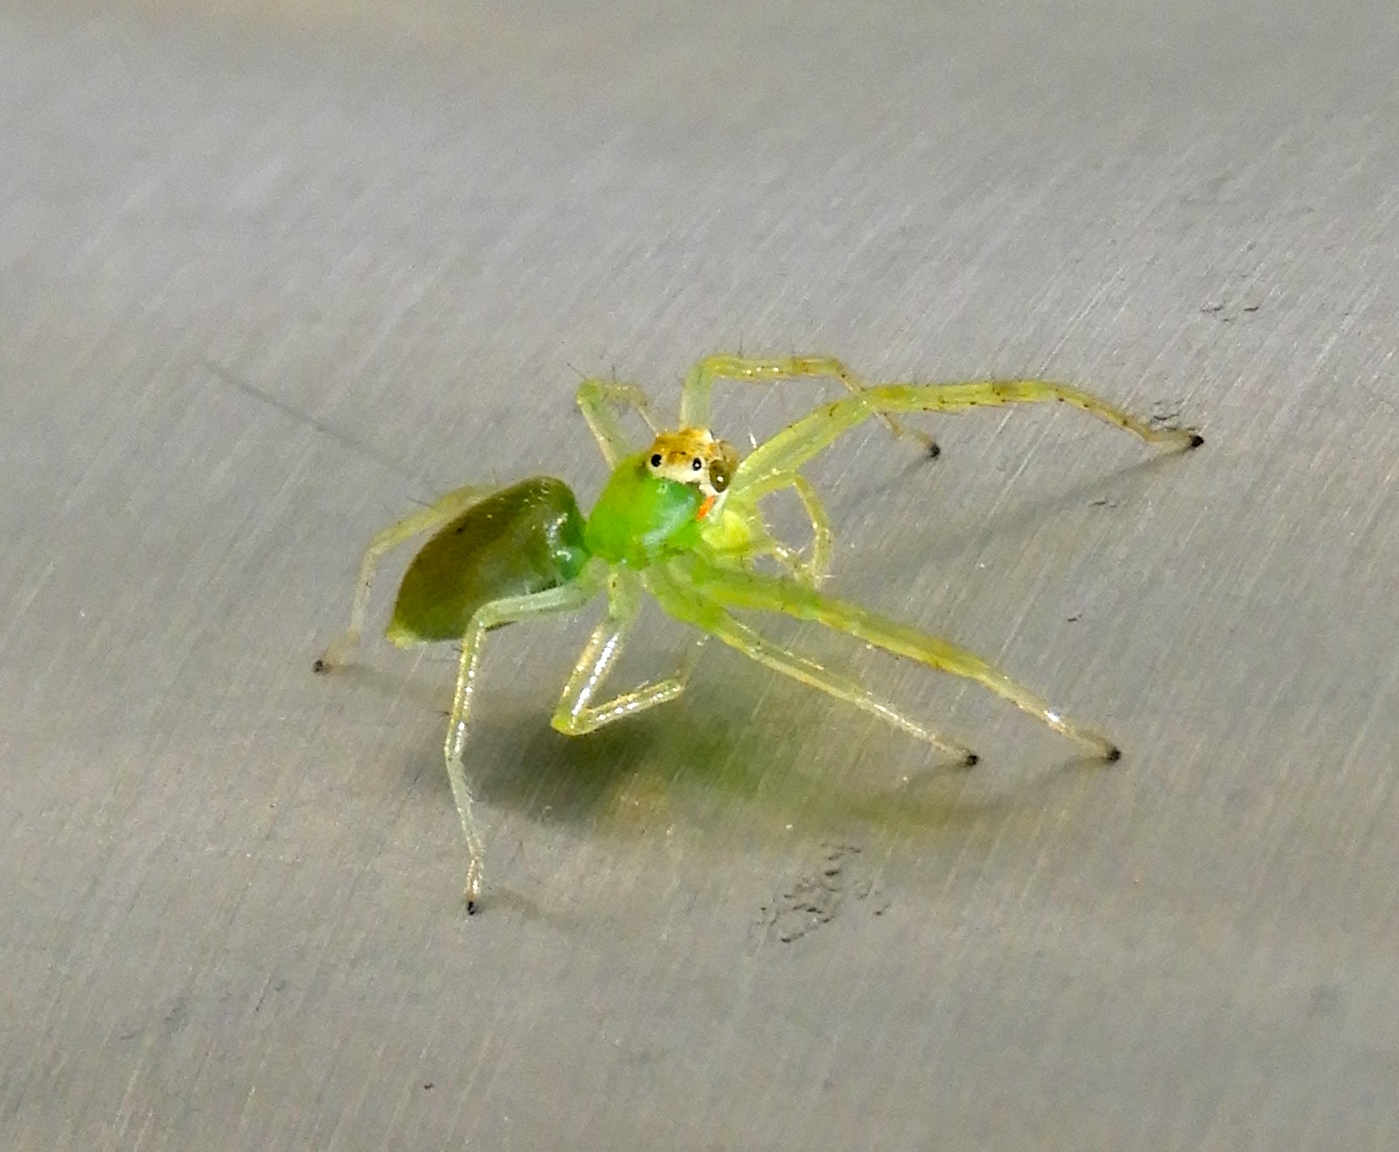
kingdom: Animalia
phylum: Arthropoda
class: Arachnida
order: Araneae
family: Salticidae
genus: Lyssomanes
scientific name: Lyssomanes
